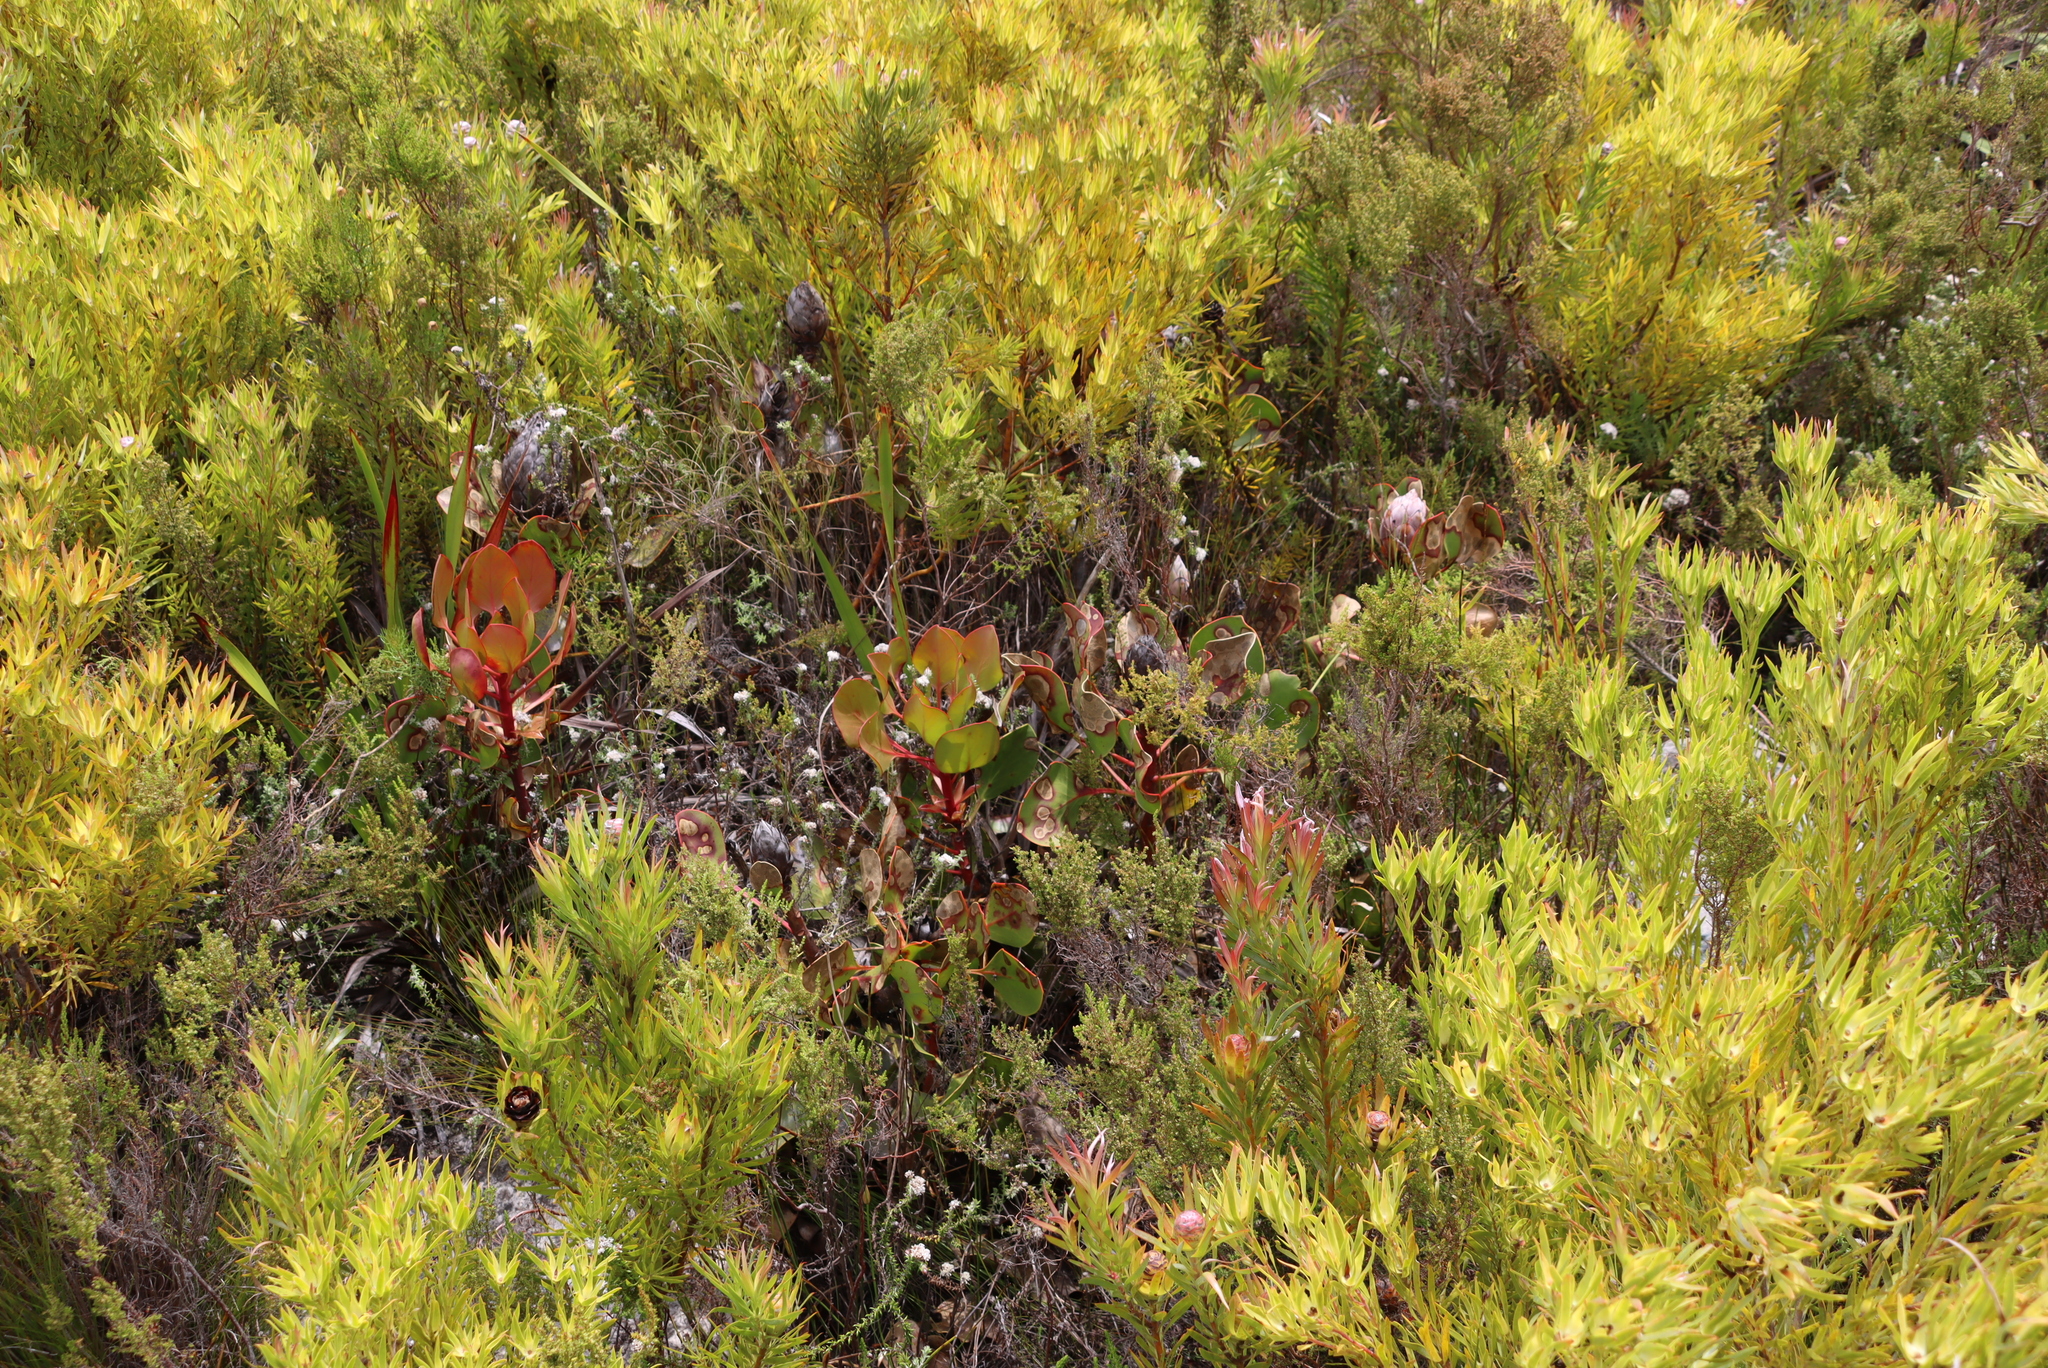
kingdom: Plantae
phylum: Tracheophyta
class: Magnoliopsida
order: Proteales
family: Proteaceae
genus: Protea
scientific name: Protea cynaroides
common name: King protea
